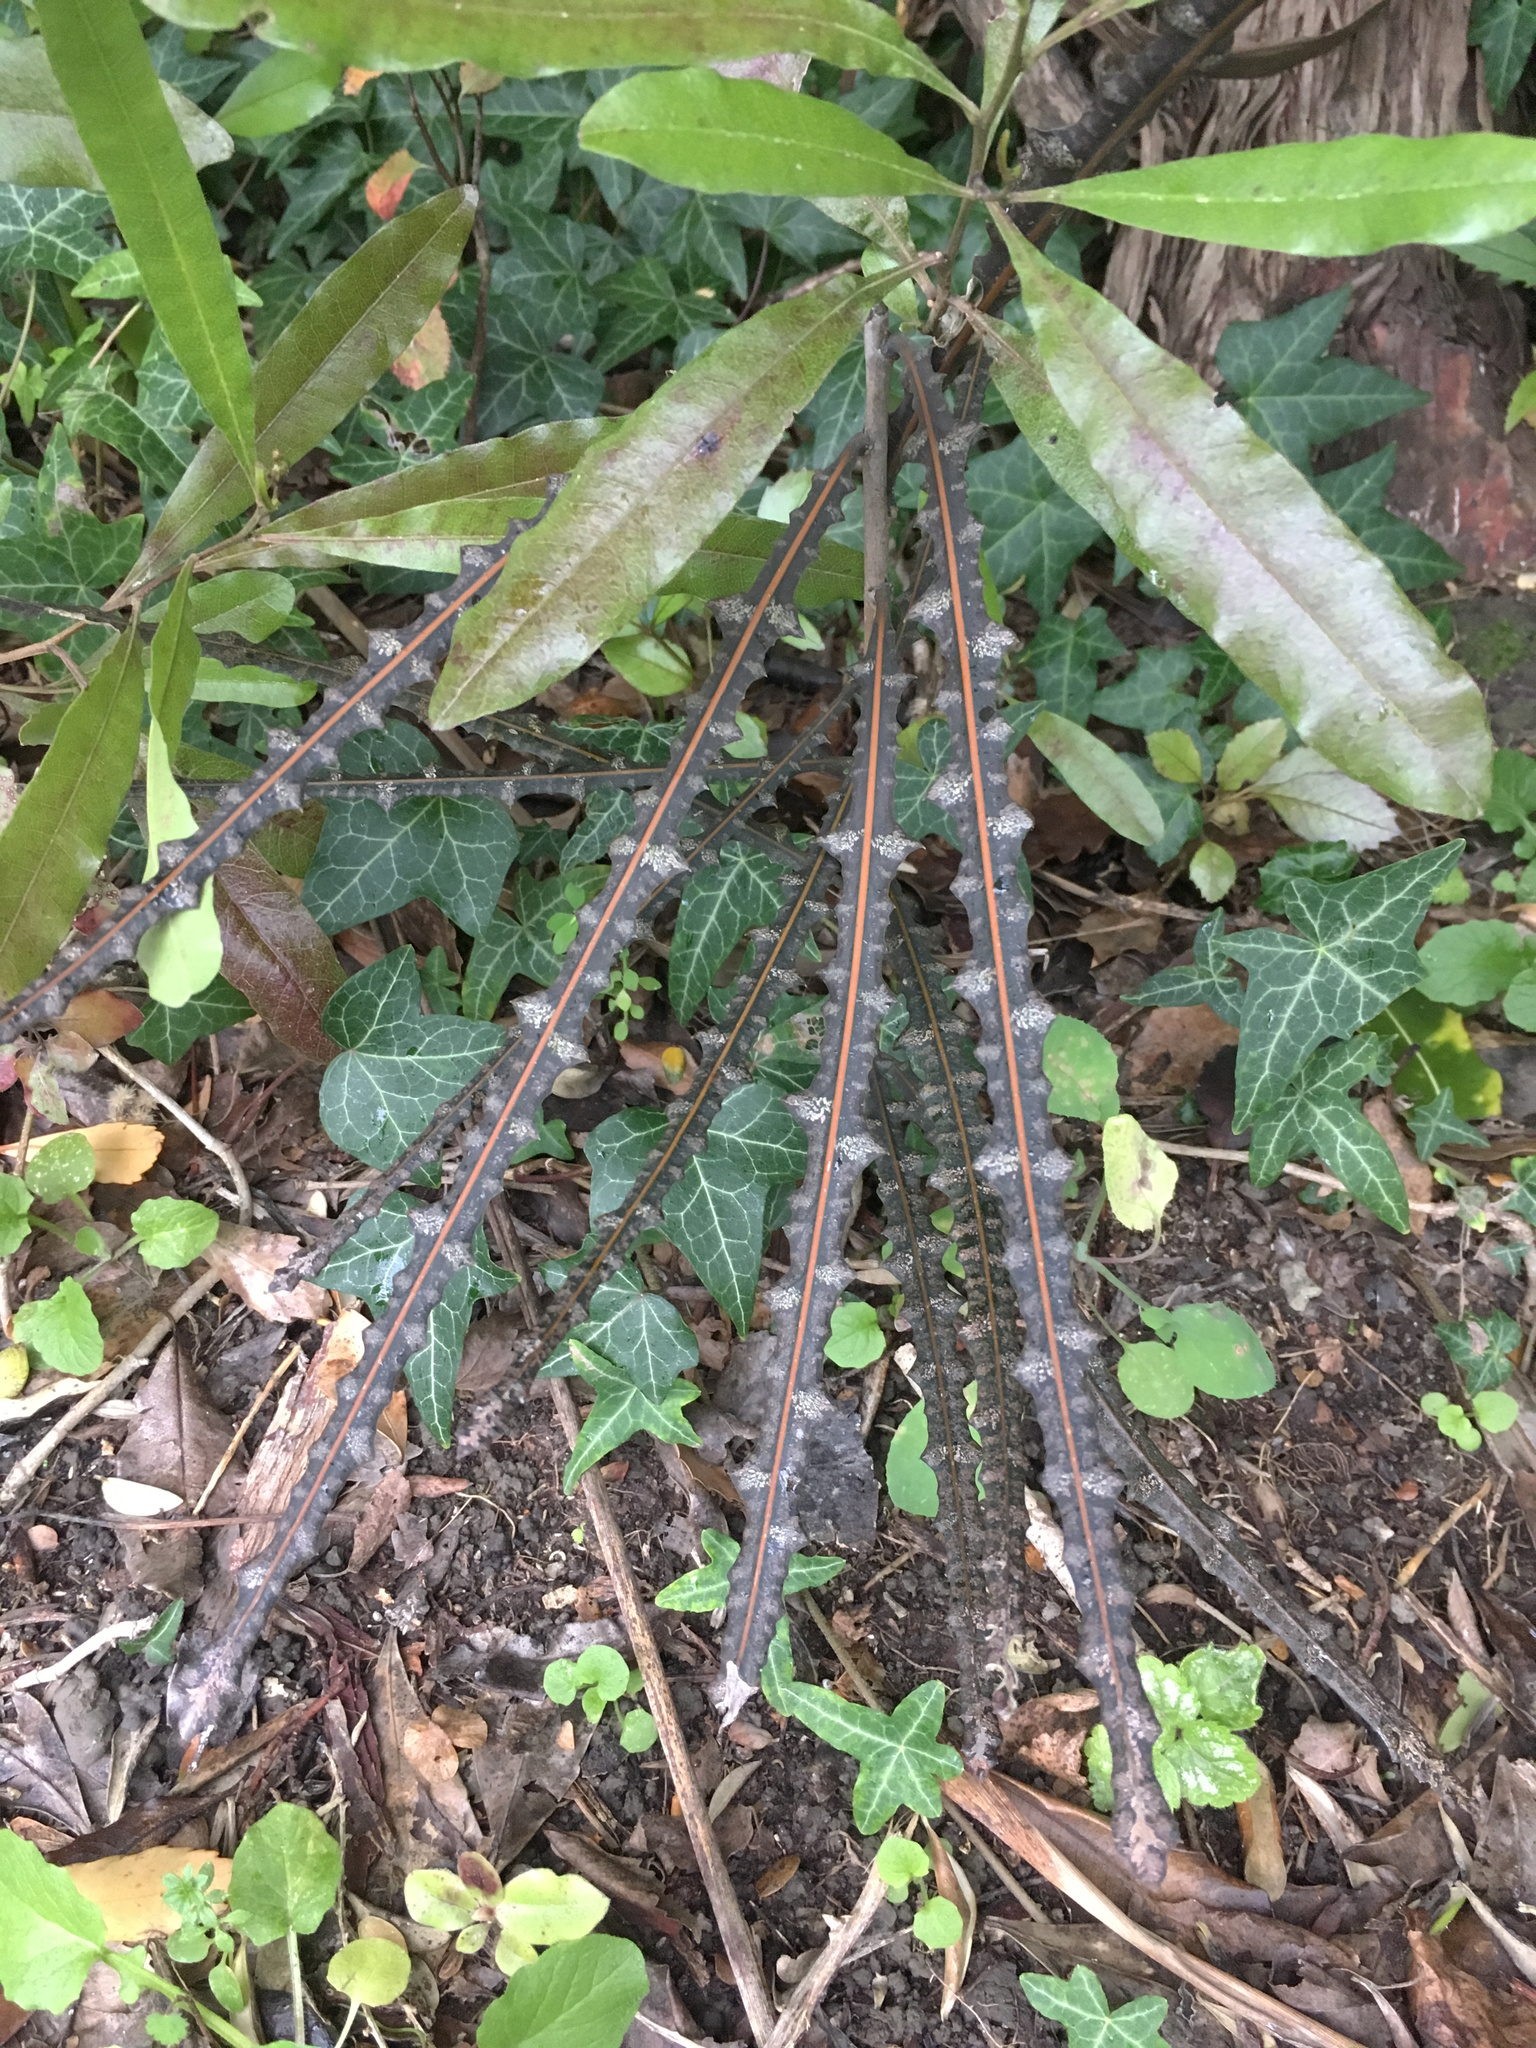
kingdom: Plantae
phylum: Tracheophyta
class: Magnoliopsida
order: Apiales
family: Araliaceae
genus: Pseudopanax
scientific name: Pseudopanax ferox
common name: Fierce lancewood
